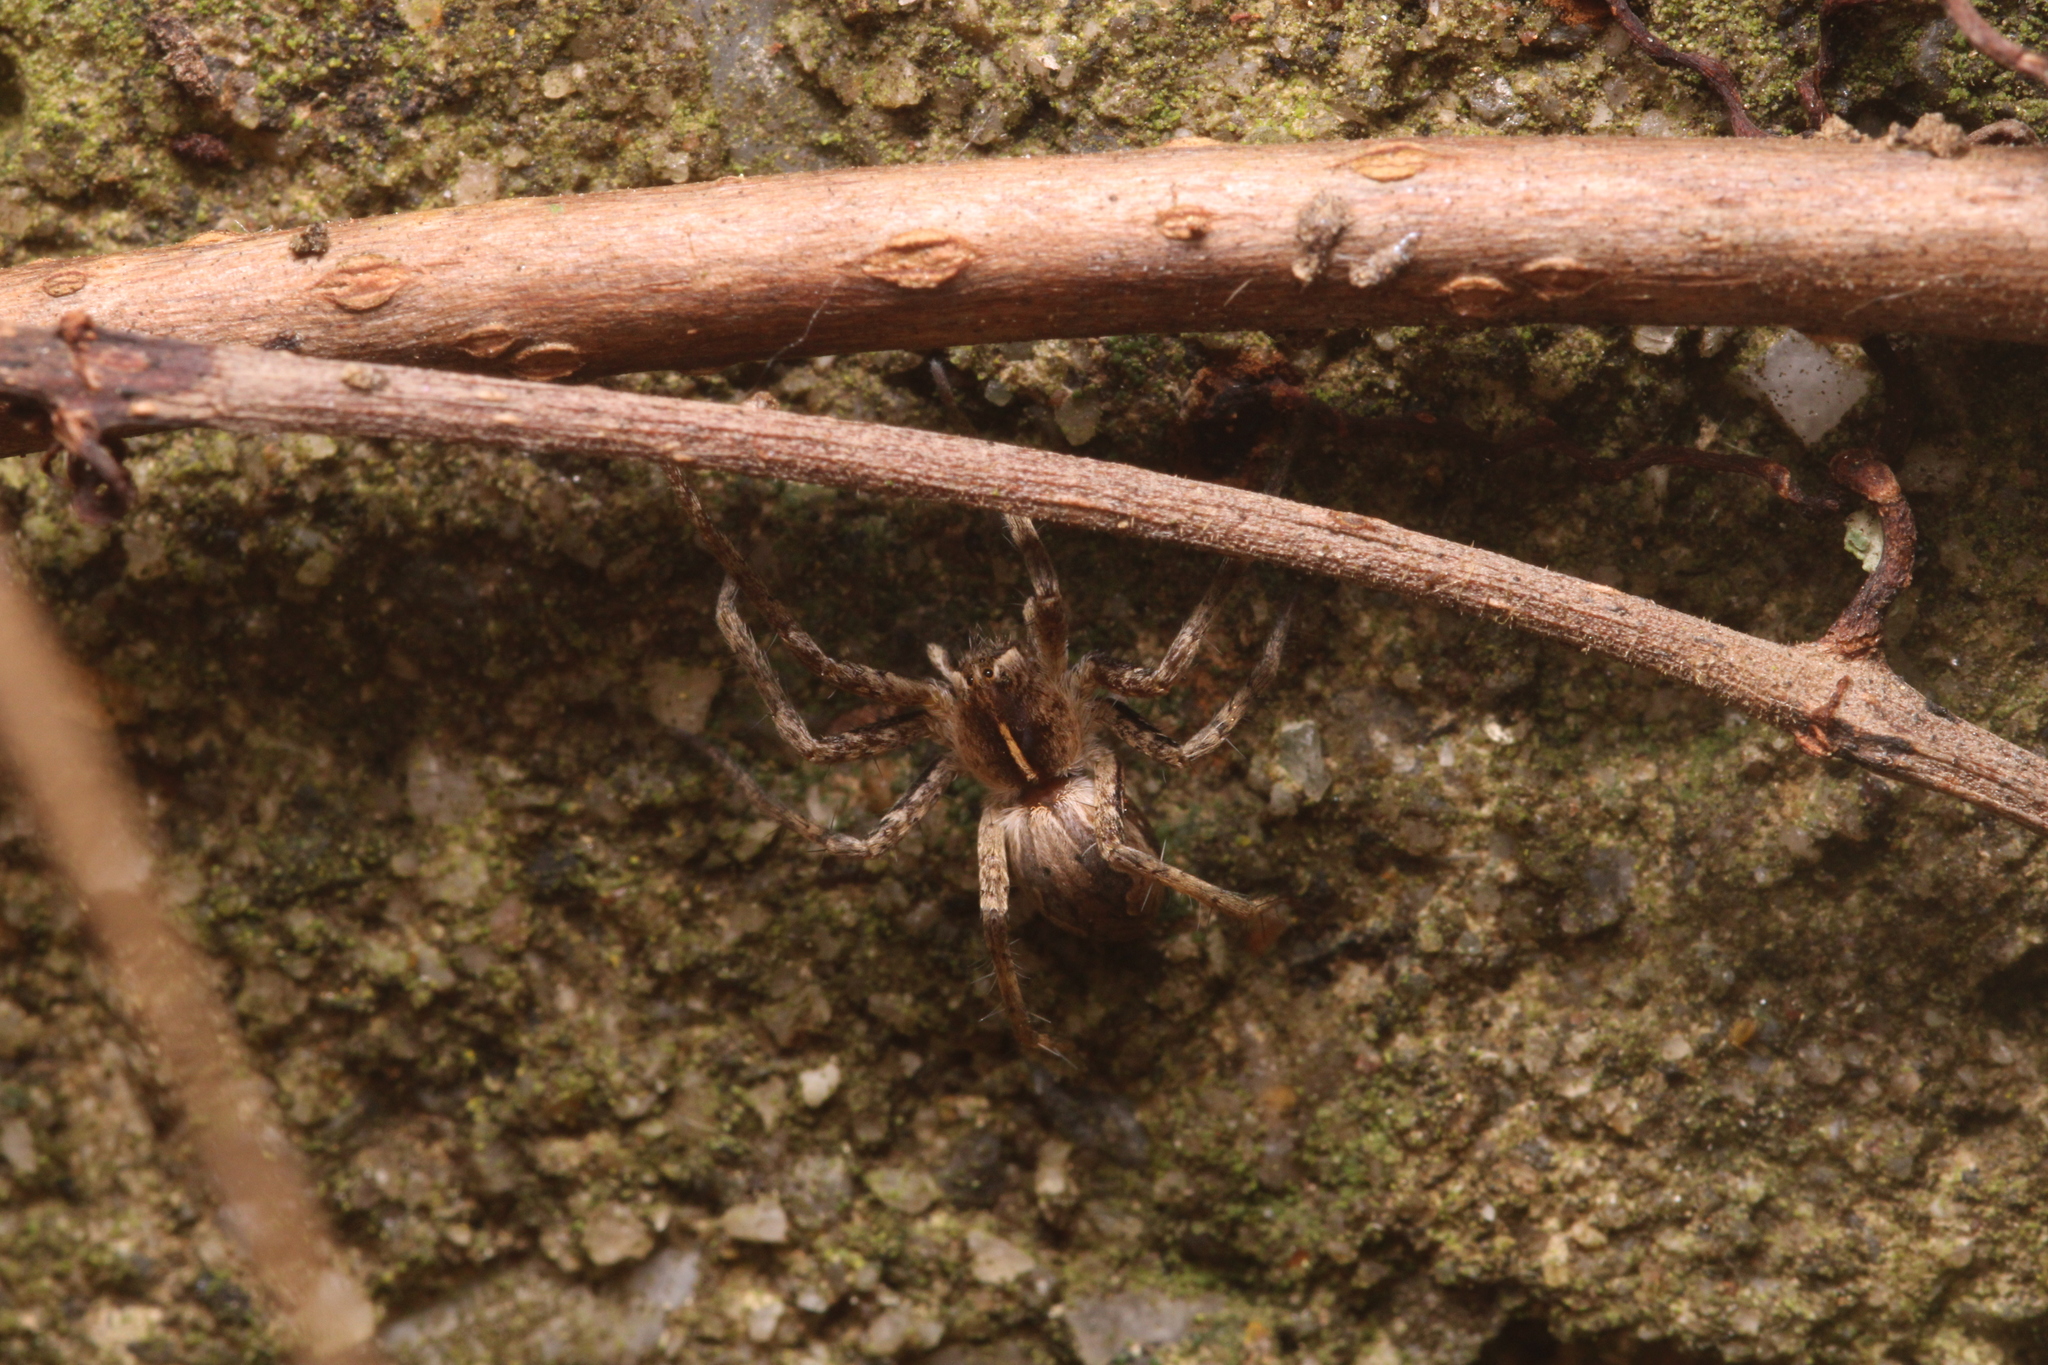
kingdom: Animalia
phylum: Arthropoda
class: Arachnida
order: Araneae
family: Pisauridae
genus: Pisaura
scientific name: Pisaura mirabilis
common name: Tent spider
